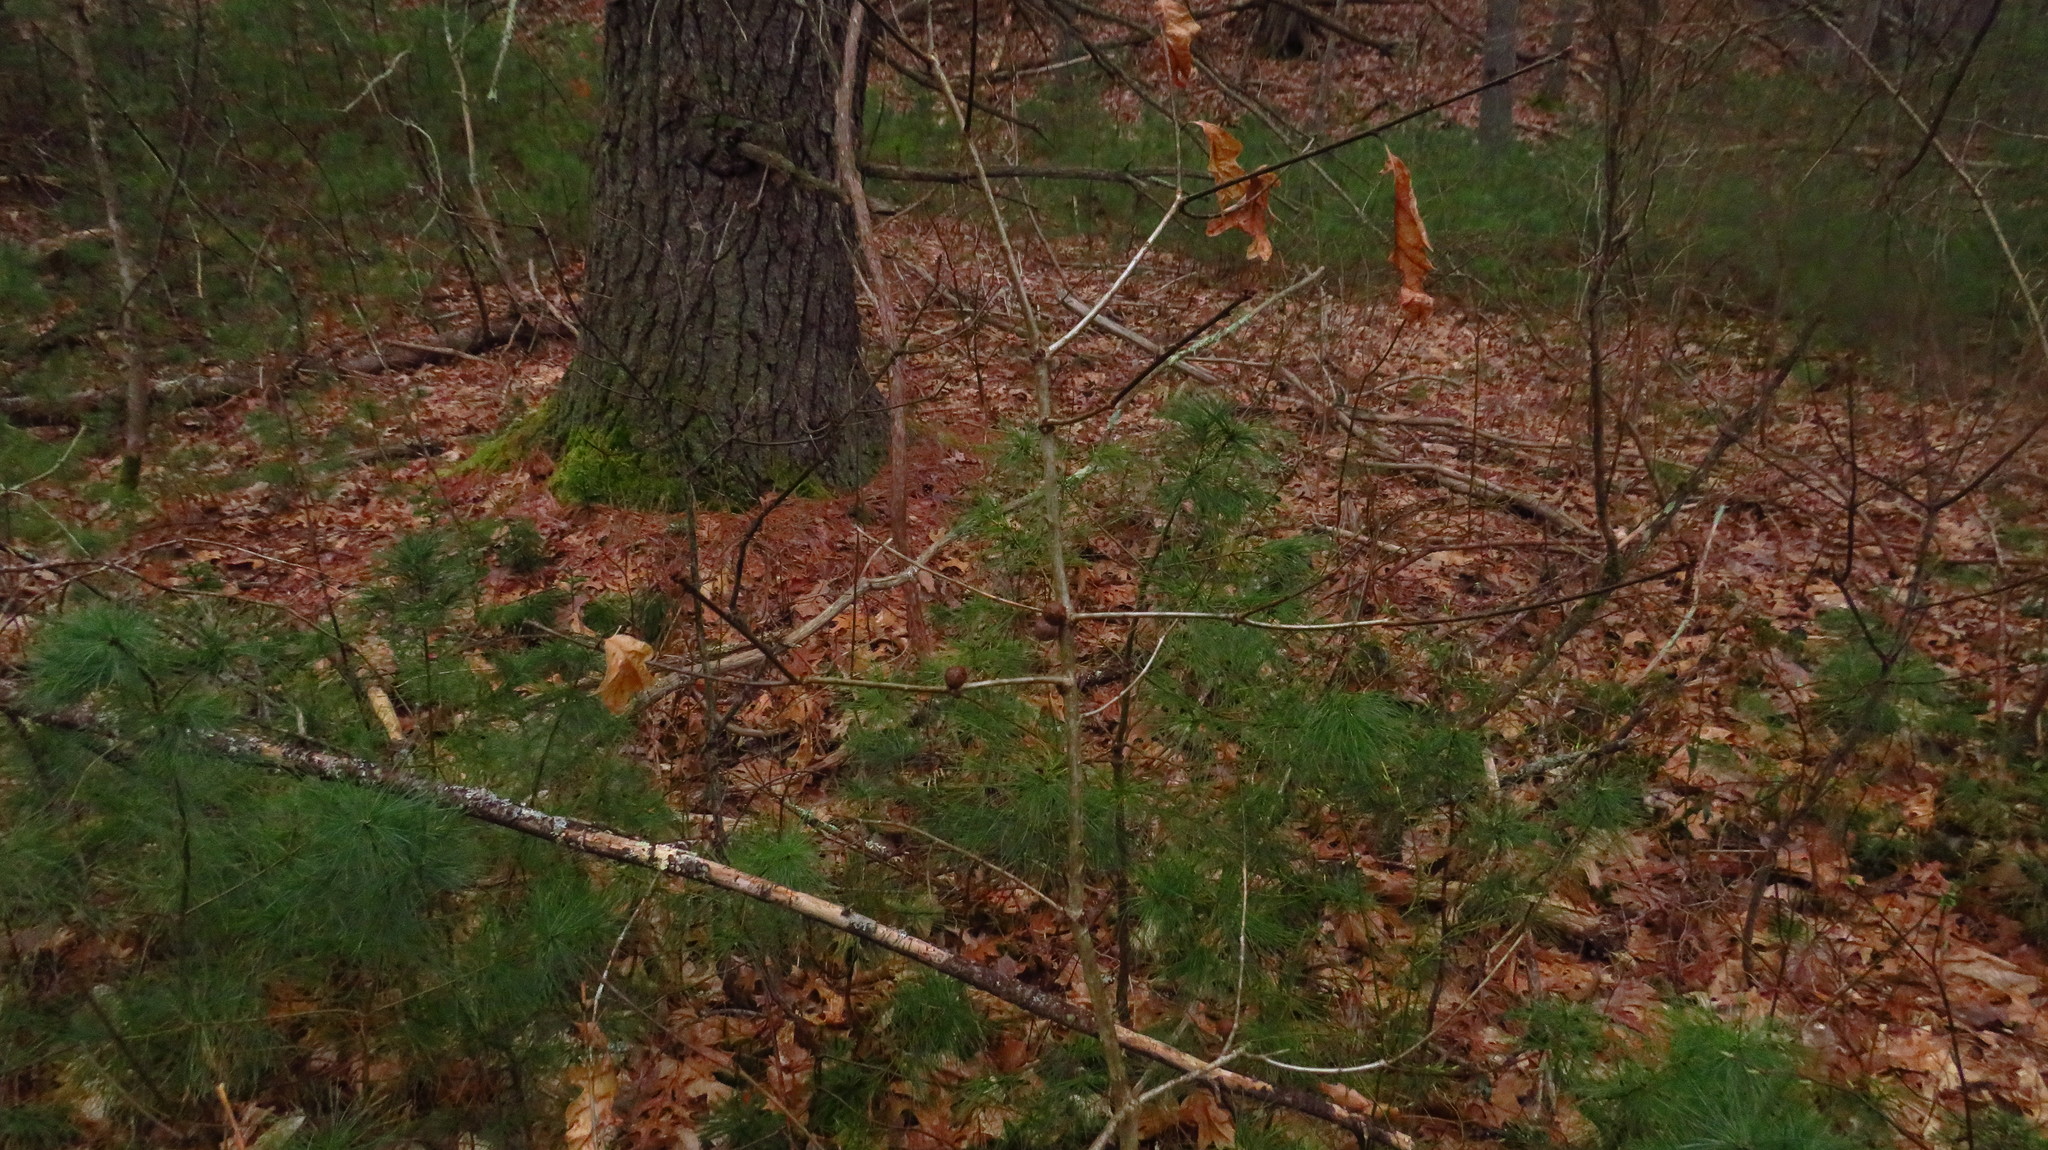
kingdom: Animalia
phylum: Arthropoda
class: Insecta
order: Hymenoptera
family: Cynipidae
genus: Disholcaspis
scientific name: Disholcaspis quercusglobulus
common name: Round bullet gall wasp
